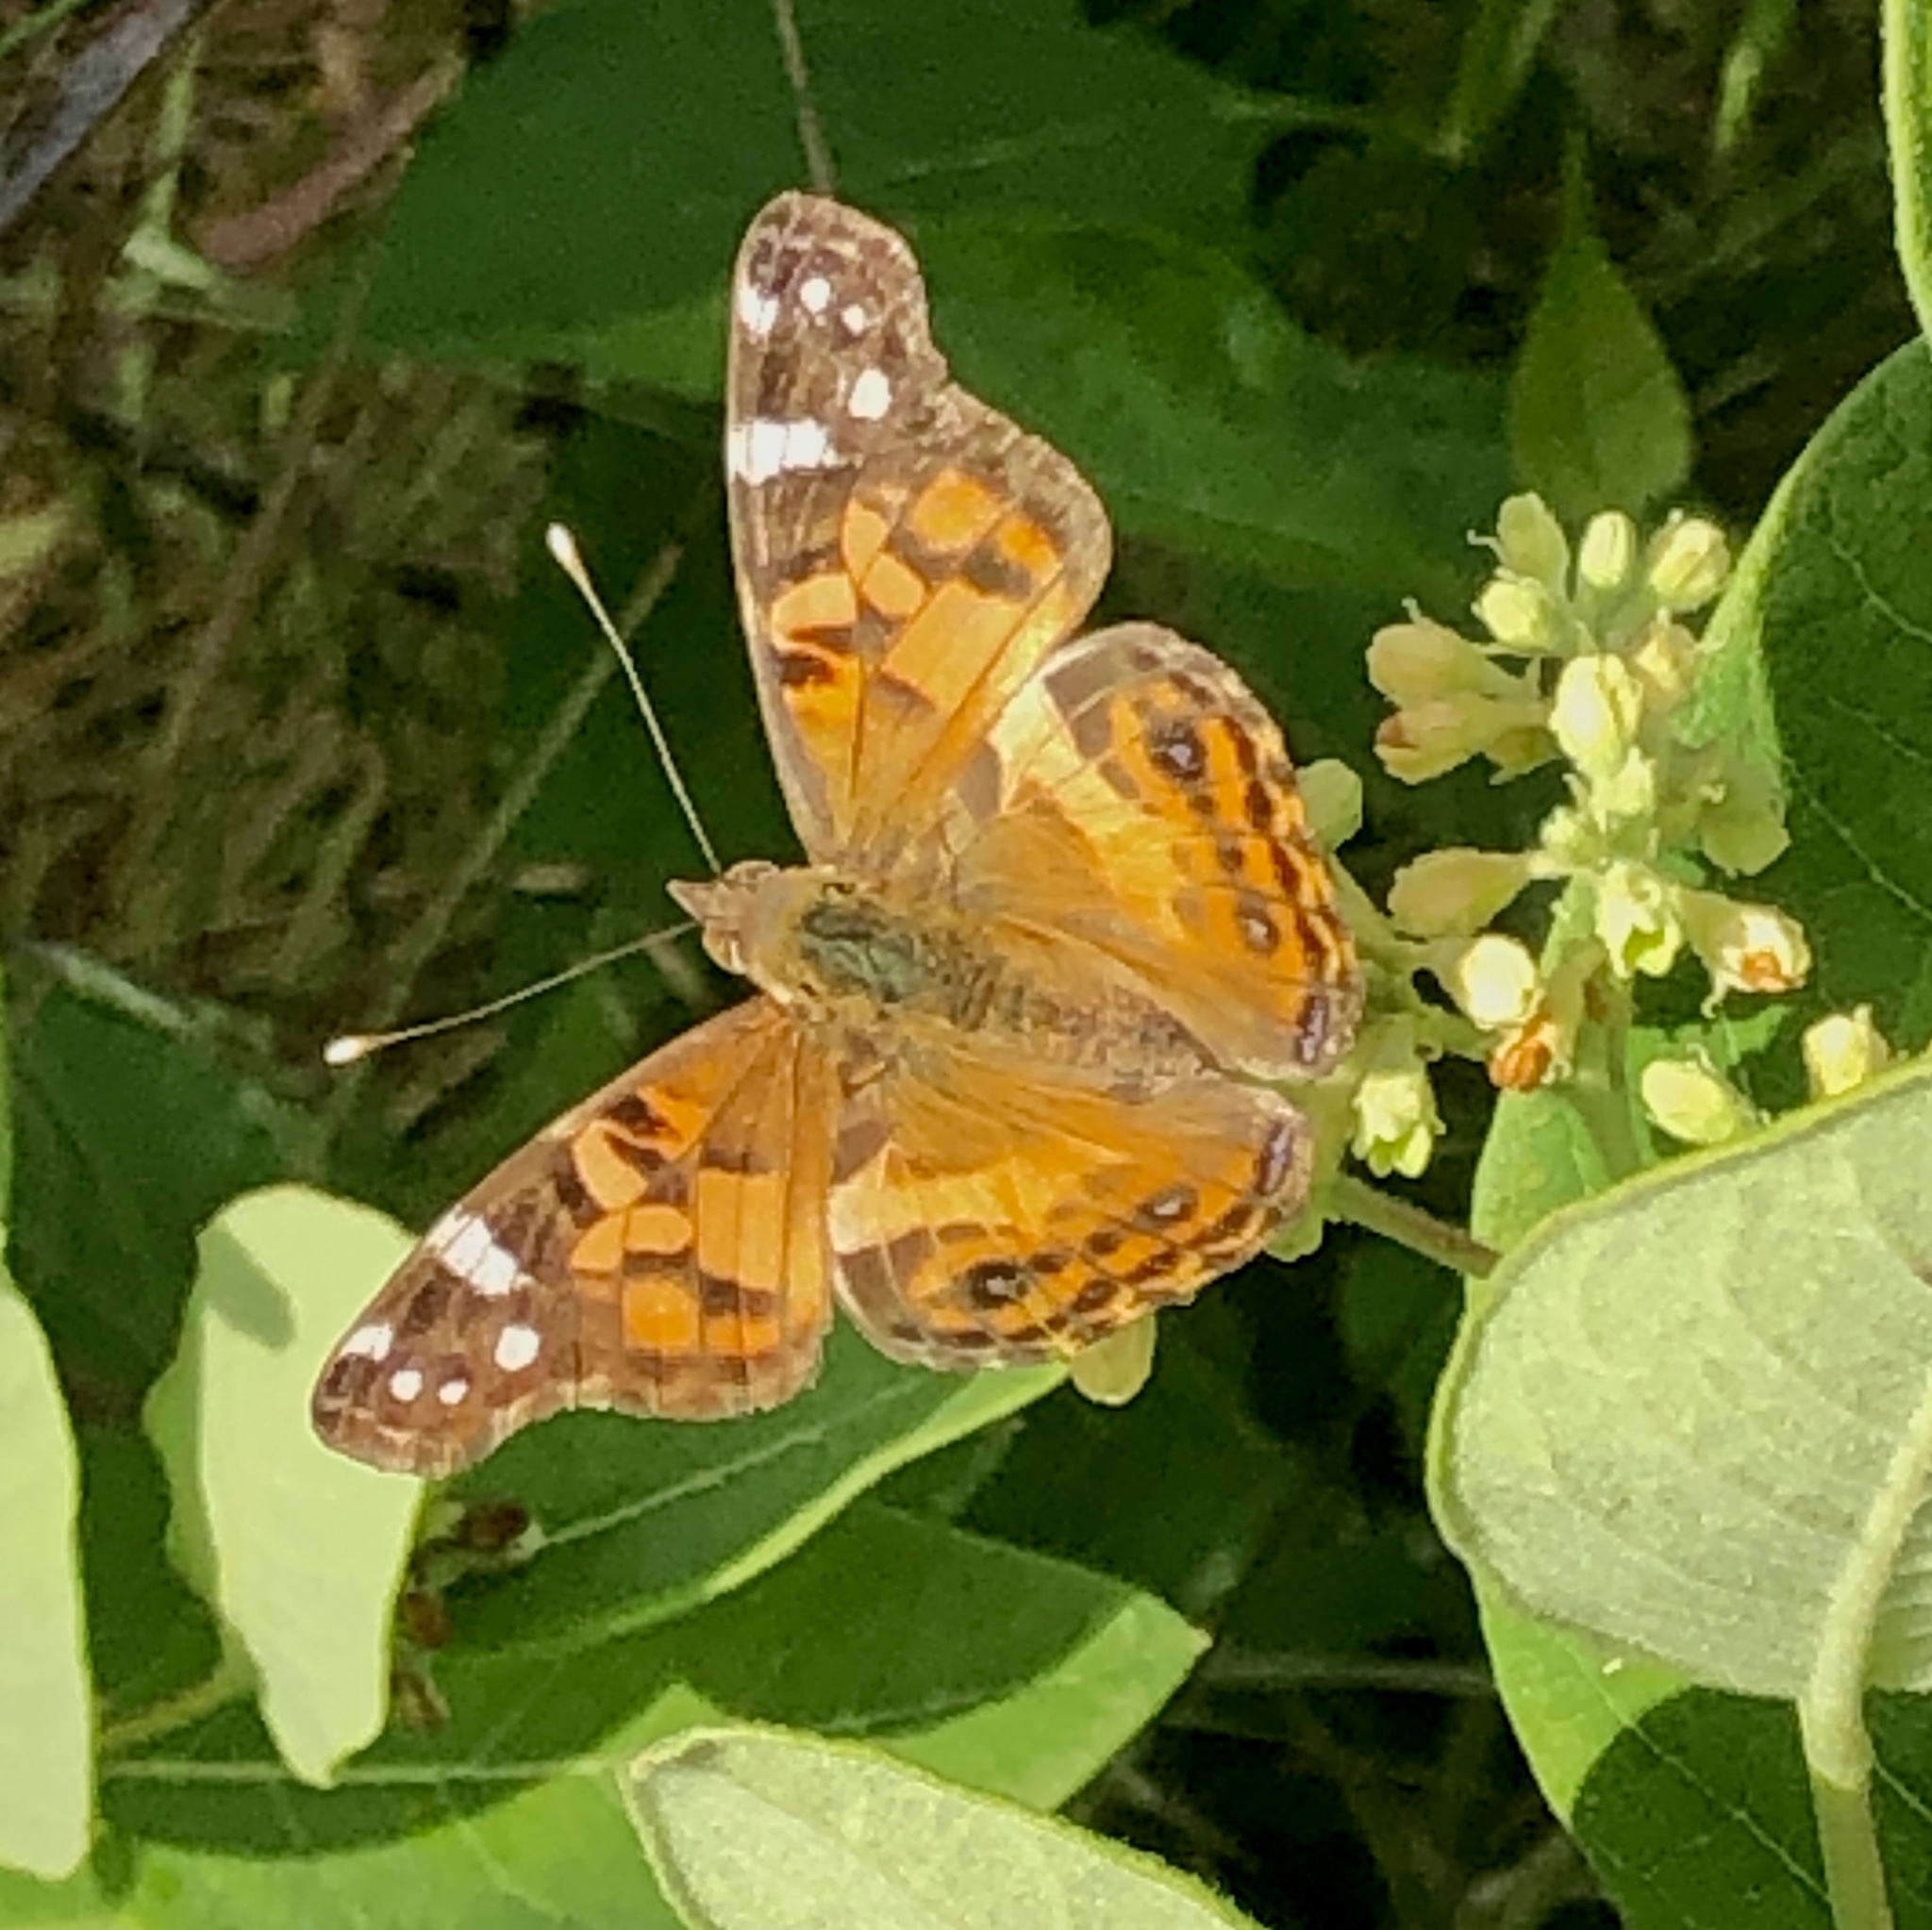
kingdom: Animalia
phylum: Arthropoda
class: Insecta
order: Lepidoptera
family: Nymphalidae
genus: Vanessa
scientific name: Vanessa virginiensis
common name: American lady
